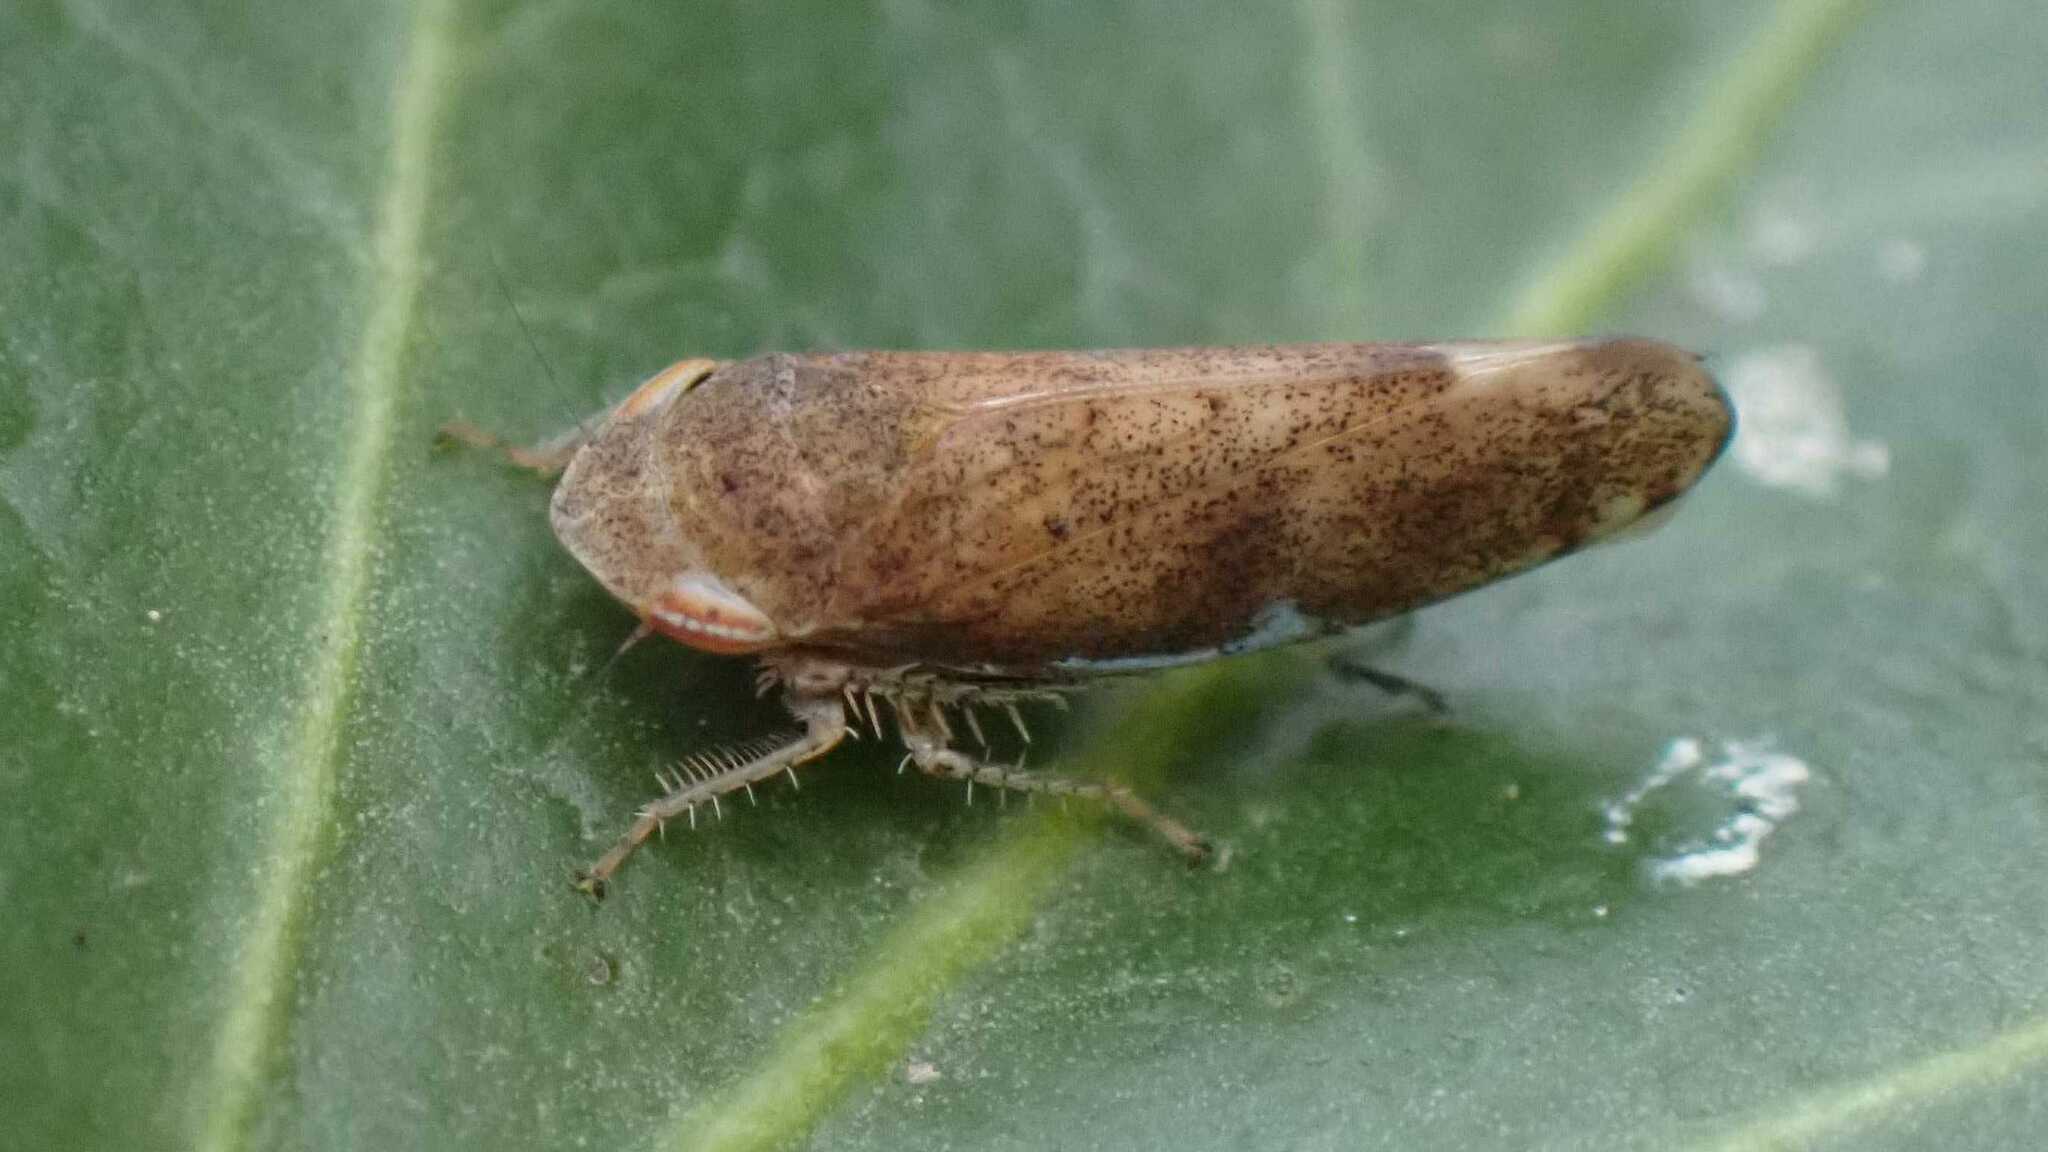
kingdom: Animalia
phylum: Arthropoda
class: Insecta
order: Hemiptera
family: Cicadellidae
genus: Fieberiella
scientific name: Fieberiella
